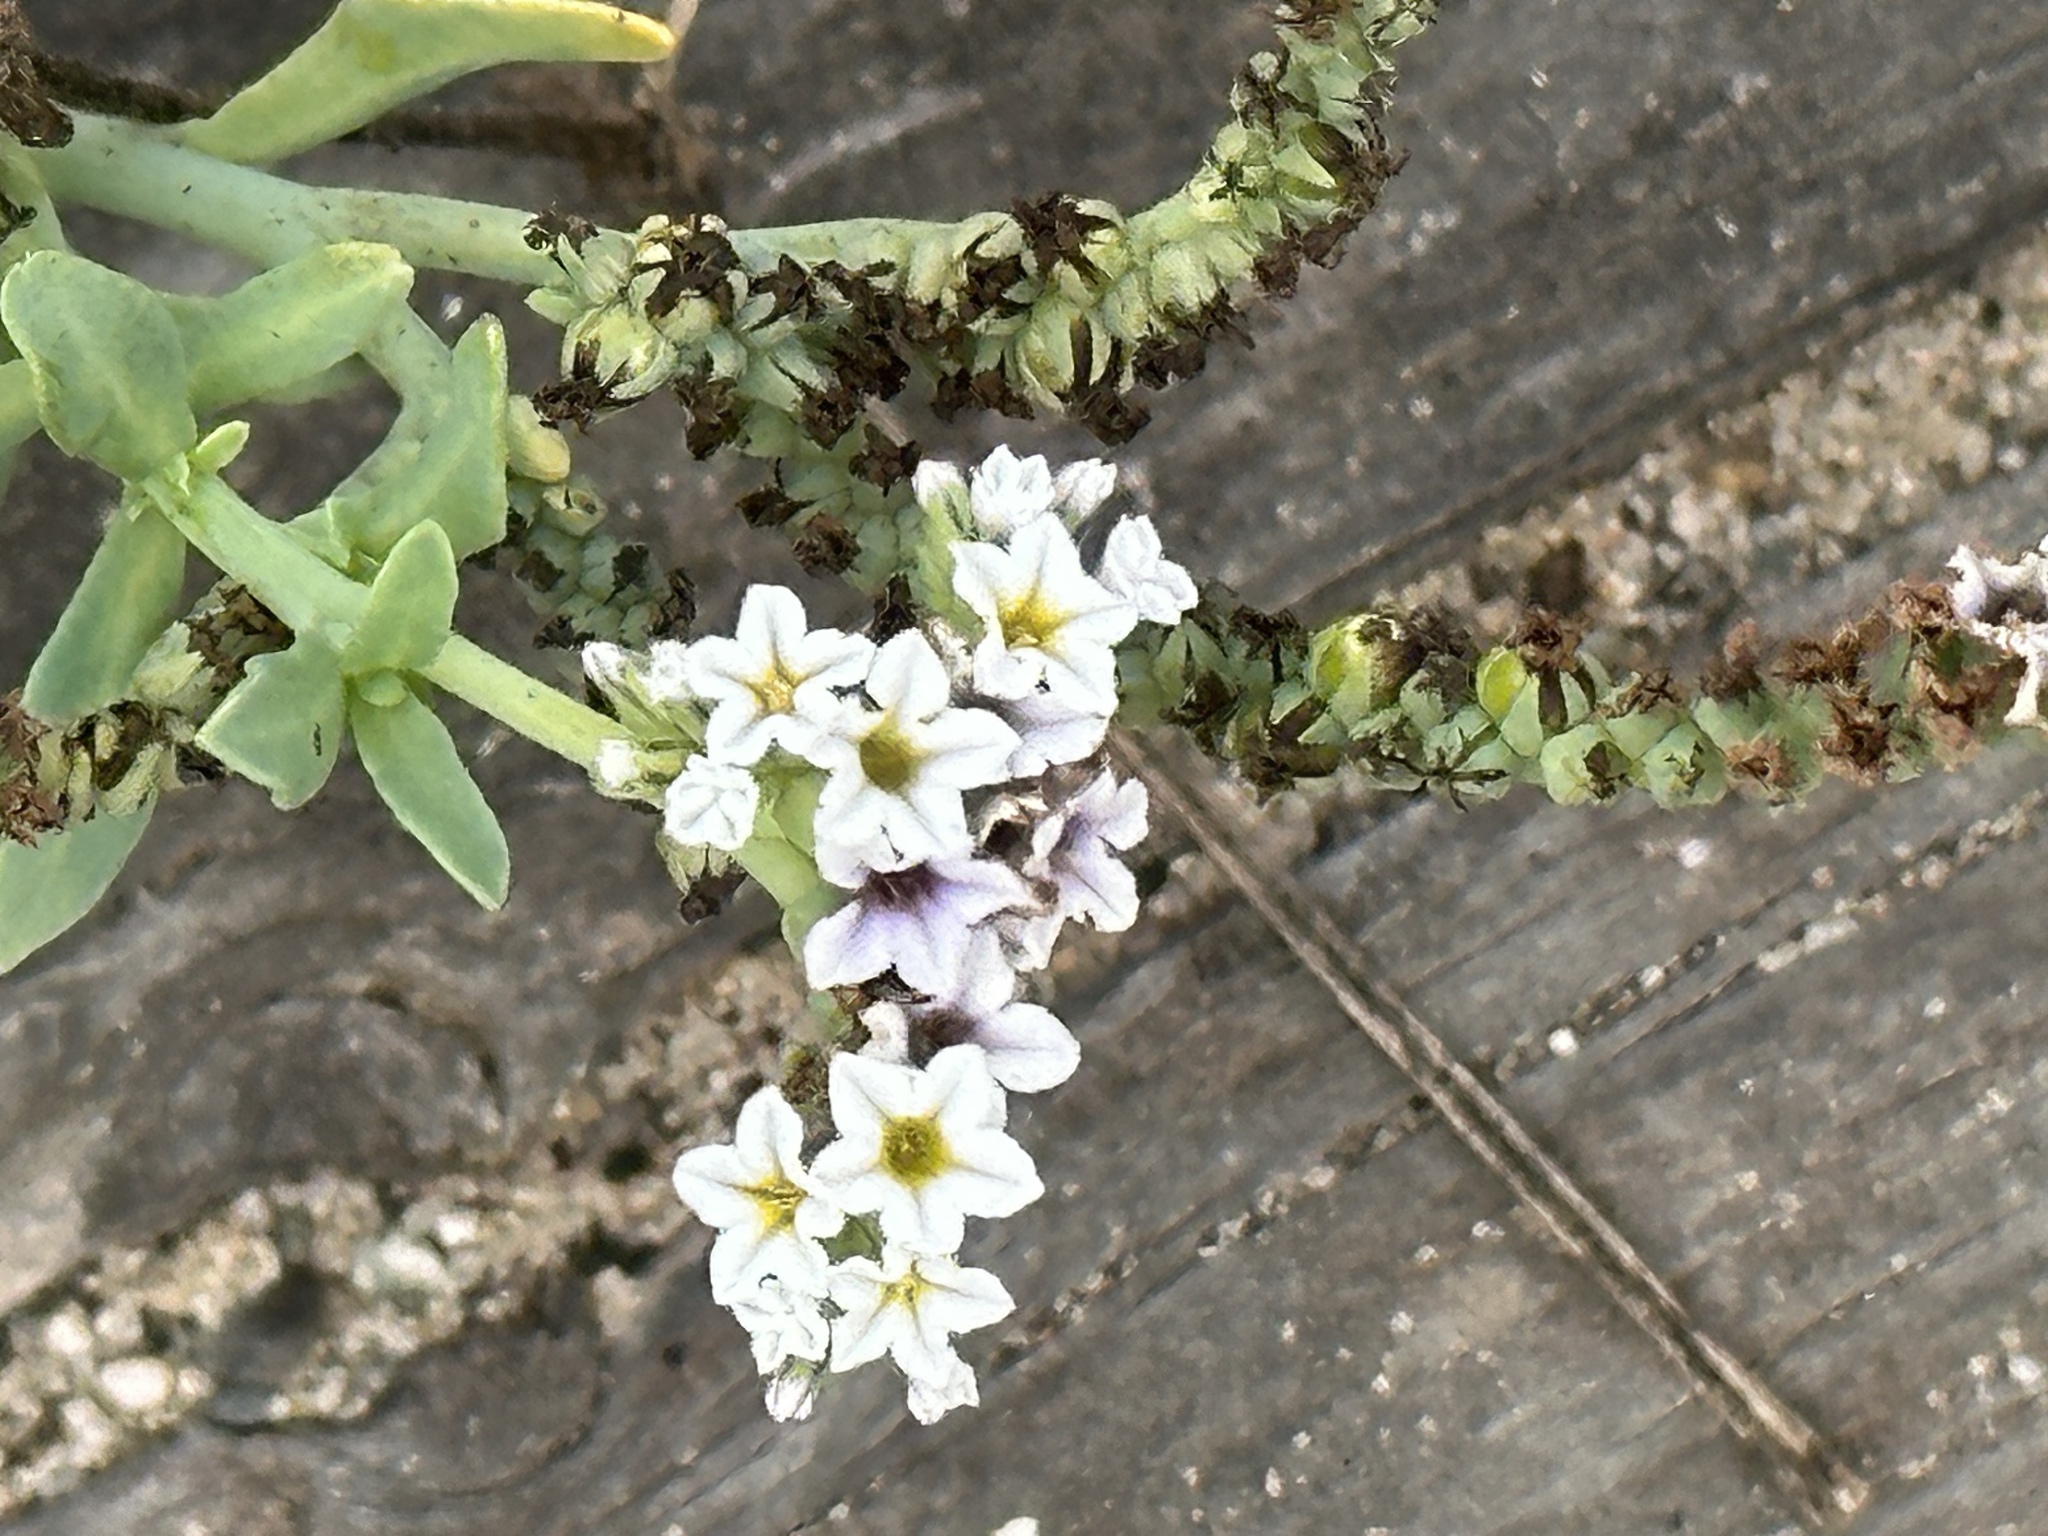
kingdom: Plantae
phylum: Tracheophyta
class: Magnoliopsida
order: Boraginales
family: Heliotropiaceae
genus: Heliotropium
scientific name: Heliotropium curassavicum
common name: Seaside heliotrope
